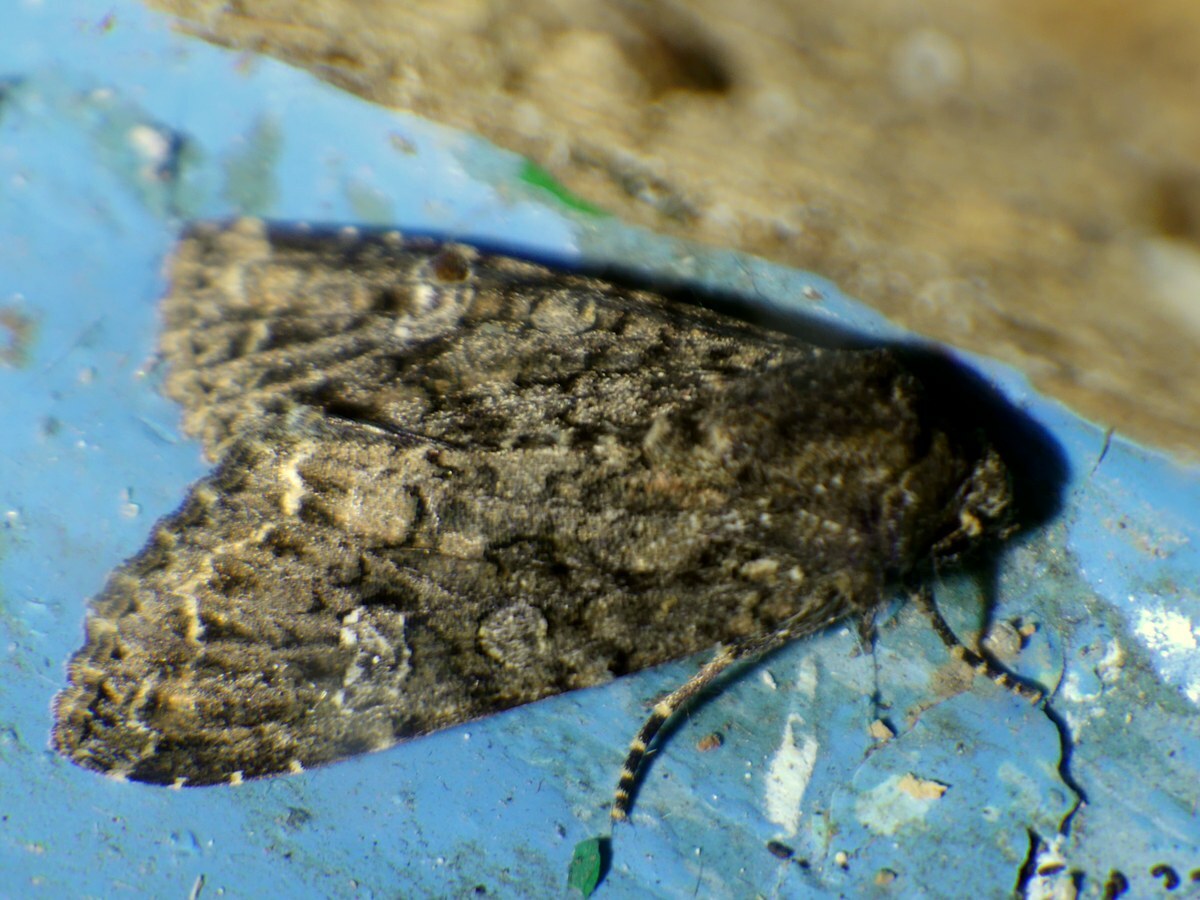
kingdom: Animalia
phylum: Arthropoda
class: Insecta
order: Lepidoptera
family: Noctuidae
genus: Mamestra
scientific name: Mamestra brassicae
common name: Cabbage moth
